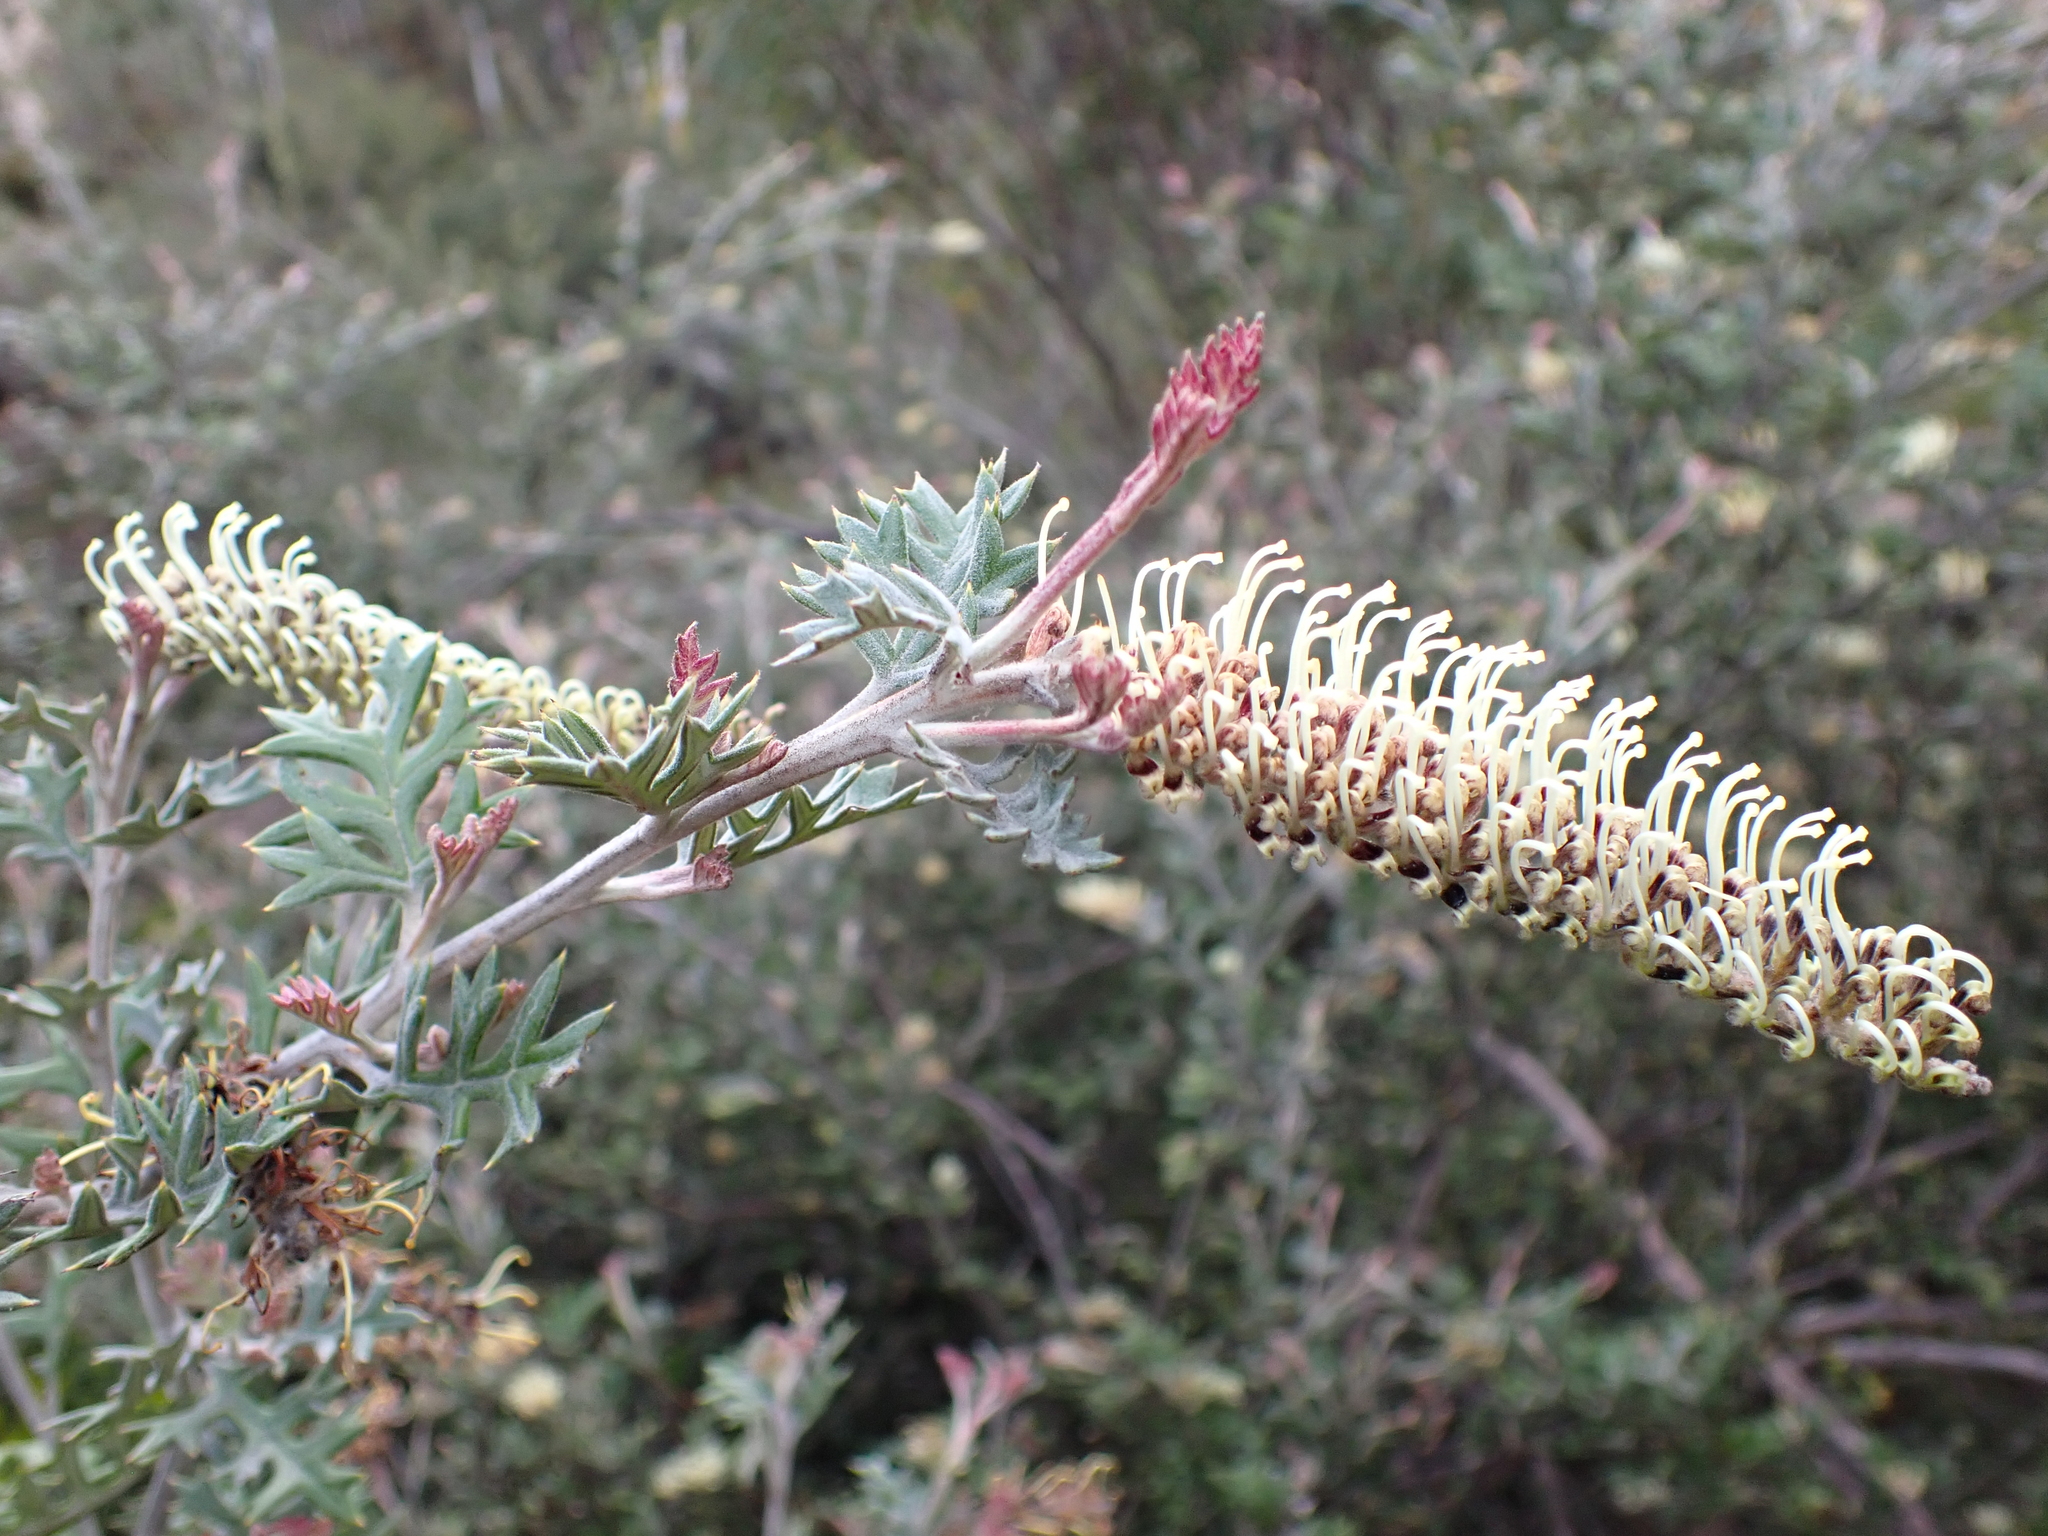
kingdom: Plantae
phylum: Tracheophyta
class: Magnoliopsida
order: Proteales
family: Proteaceae
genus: Grevillea
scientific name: Grevillea willisii
